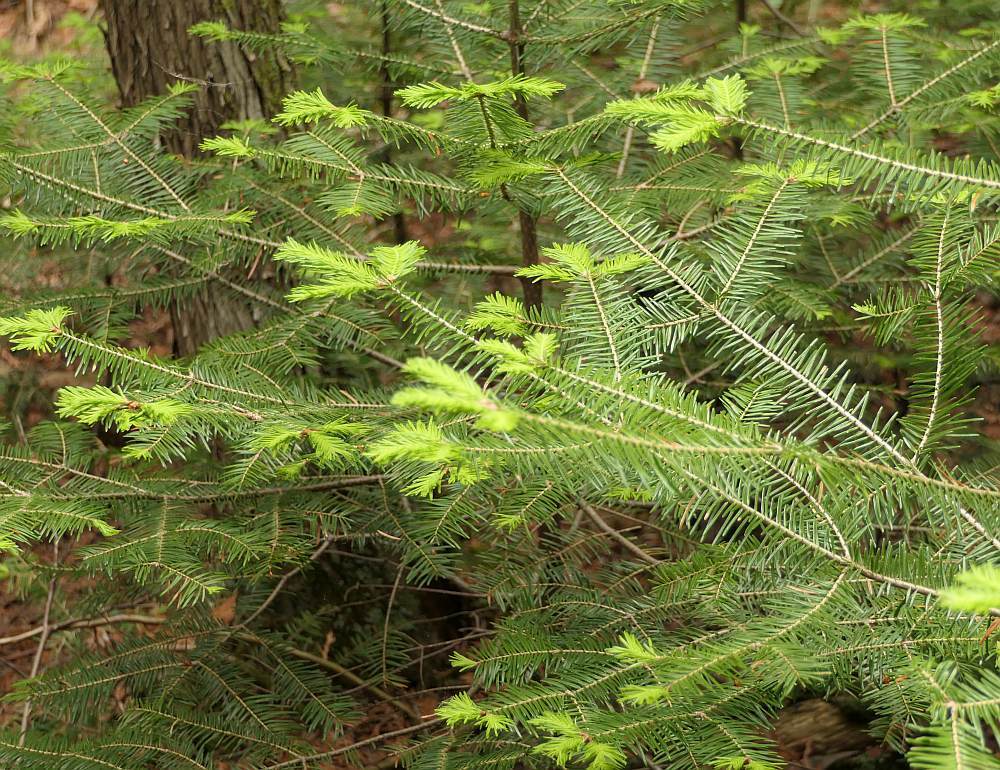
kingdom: Plantae
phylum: Tracheophyta
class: Pinopsida
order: Pinales
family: Pinaceae
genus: Abies
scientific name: Abies balsamea
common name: Balsam fir
